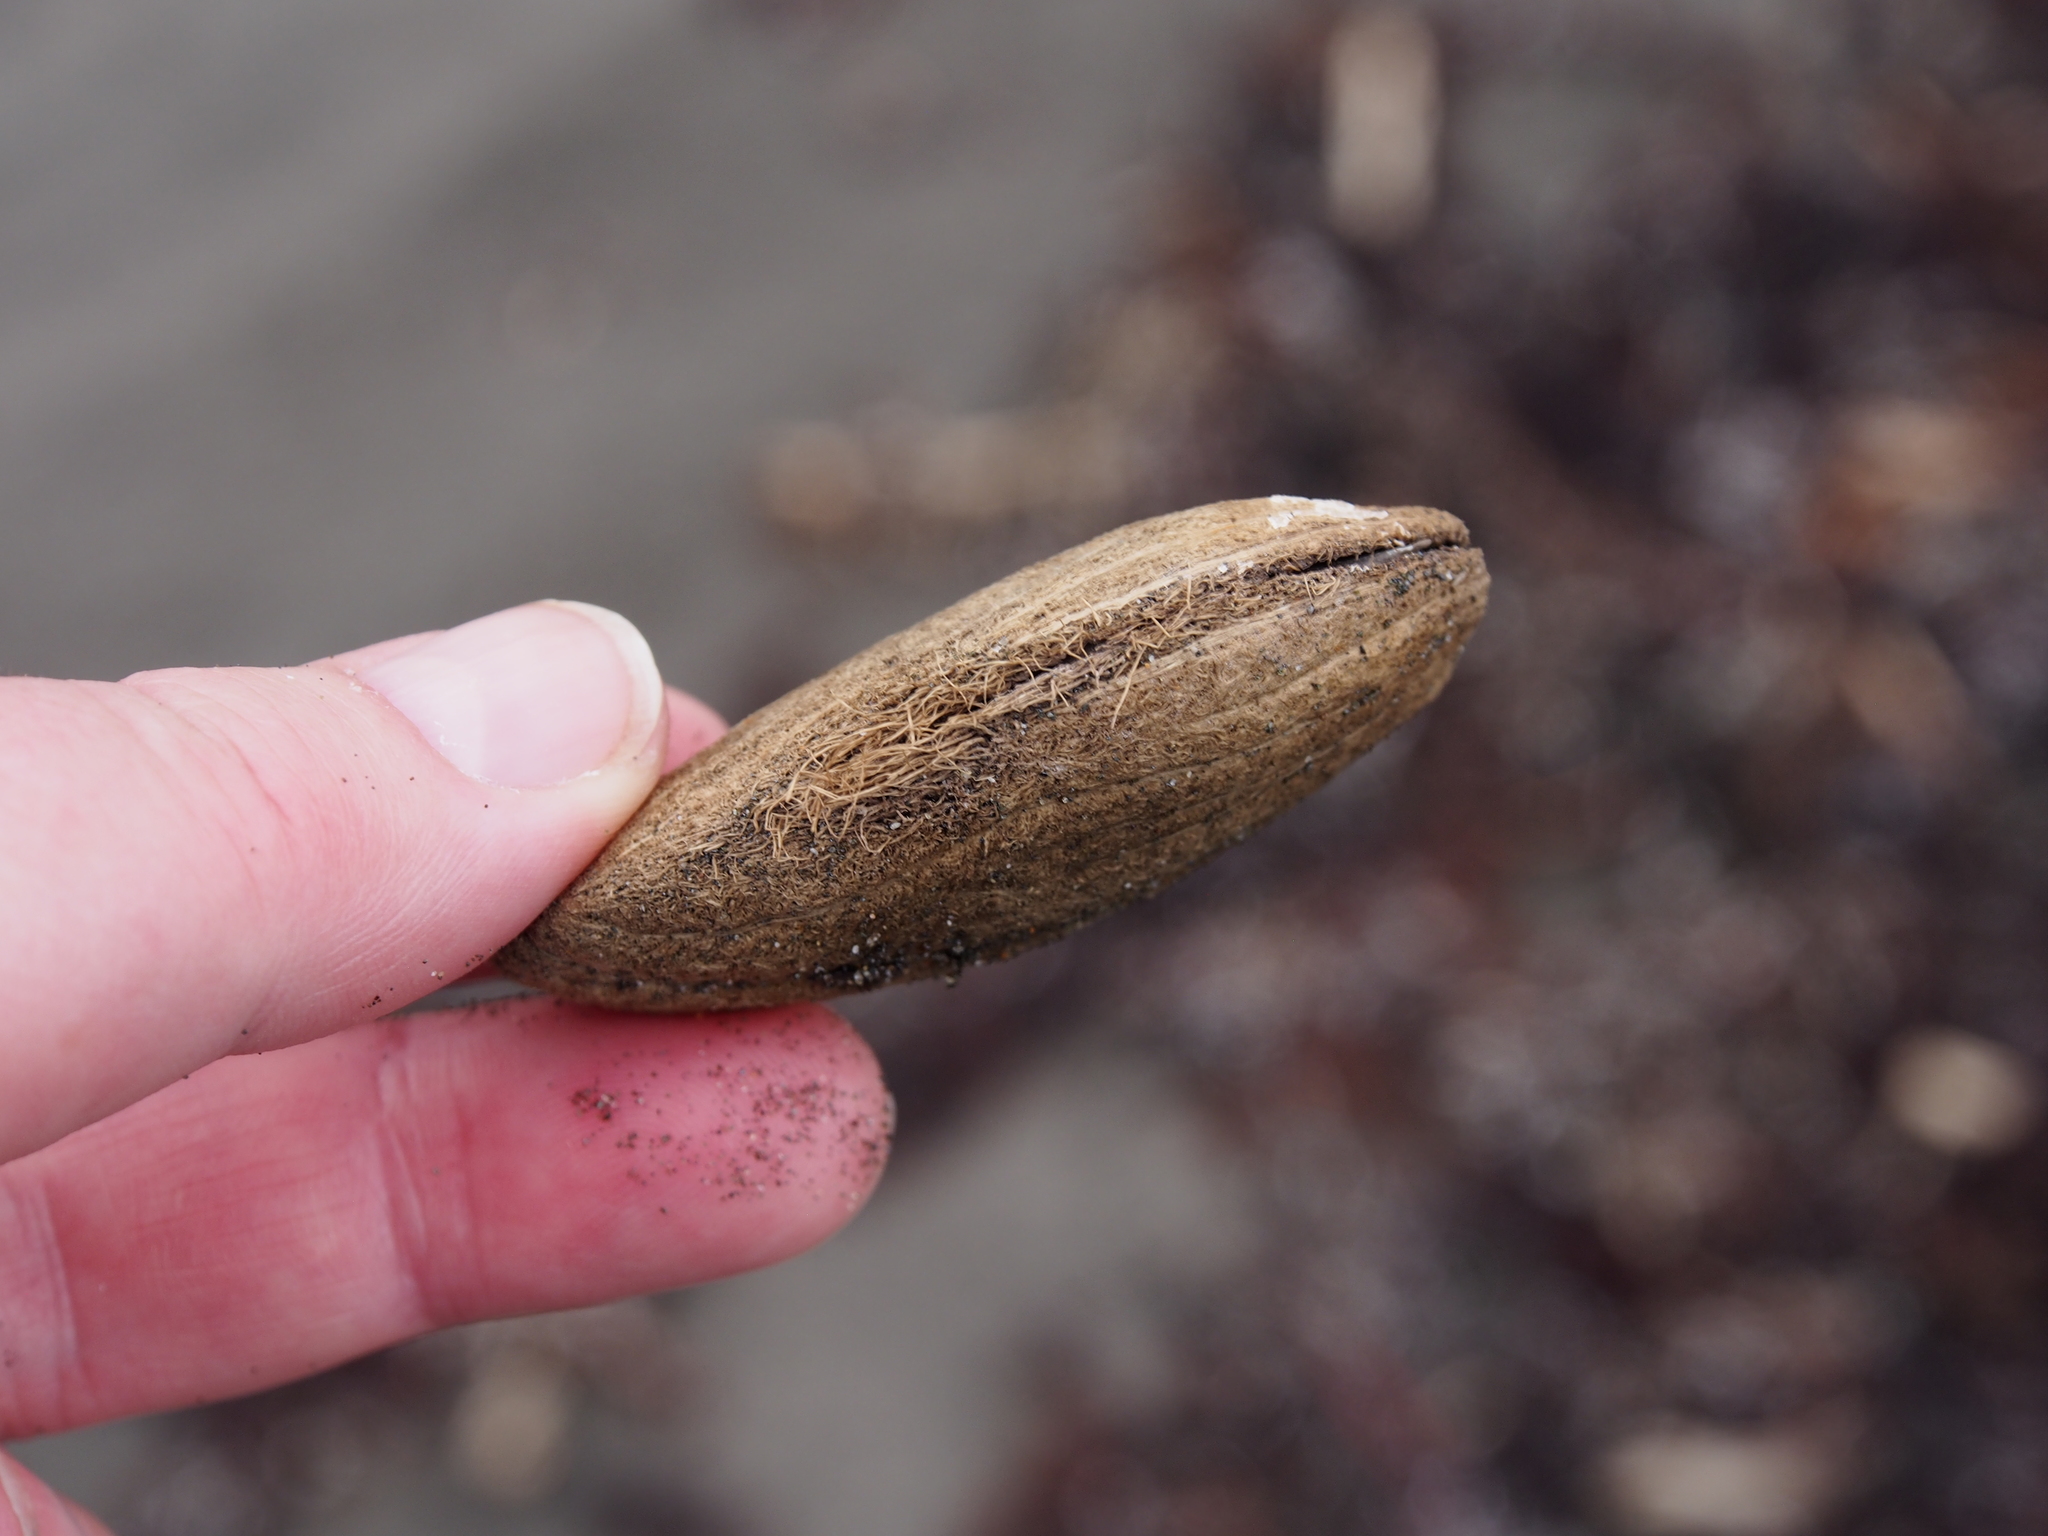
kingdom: Plantae
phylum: Tracheophyta
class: Magnoliopsida
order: Sapindales
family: Anacardiaceae
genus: Mangifera
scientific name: Mangifera indica
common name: Mango
